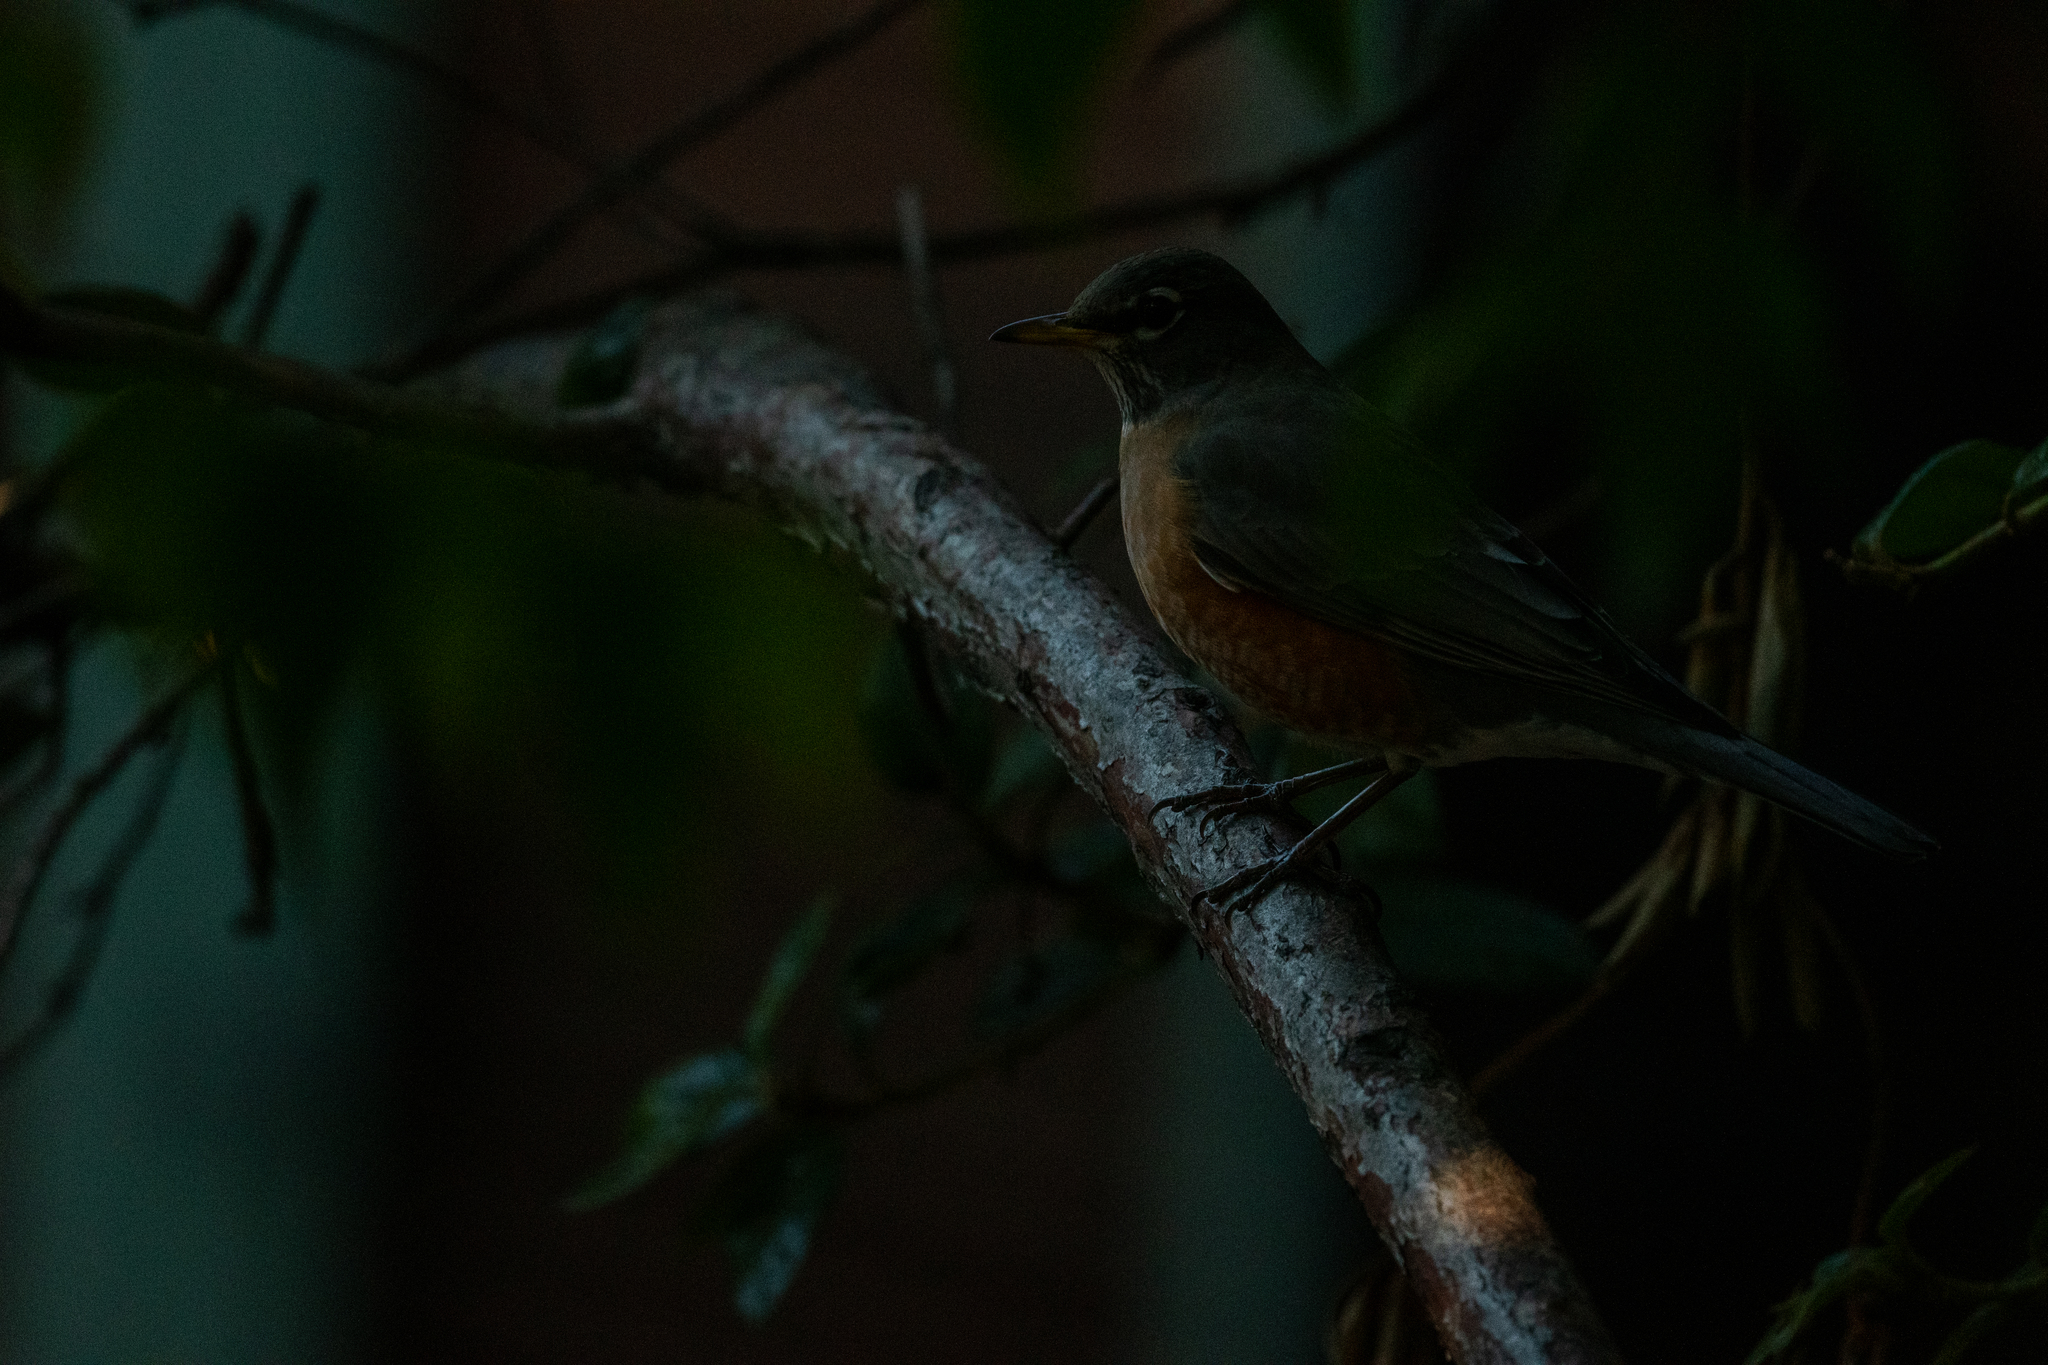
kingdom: Animalia
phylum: Chordata
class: Aves
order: Passeriformes
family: Turdidae
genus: Turdus
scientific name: Turdus migratorius
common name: American robin
